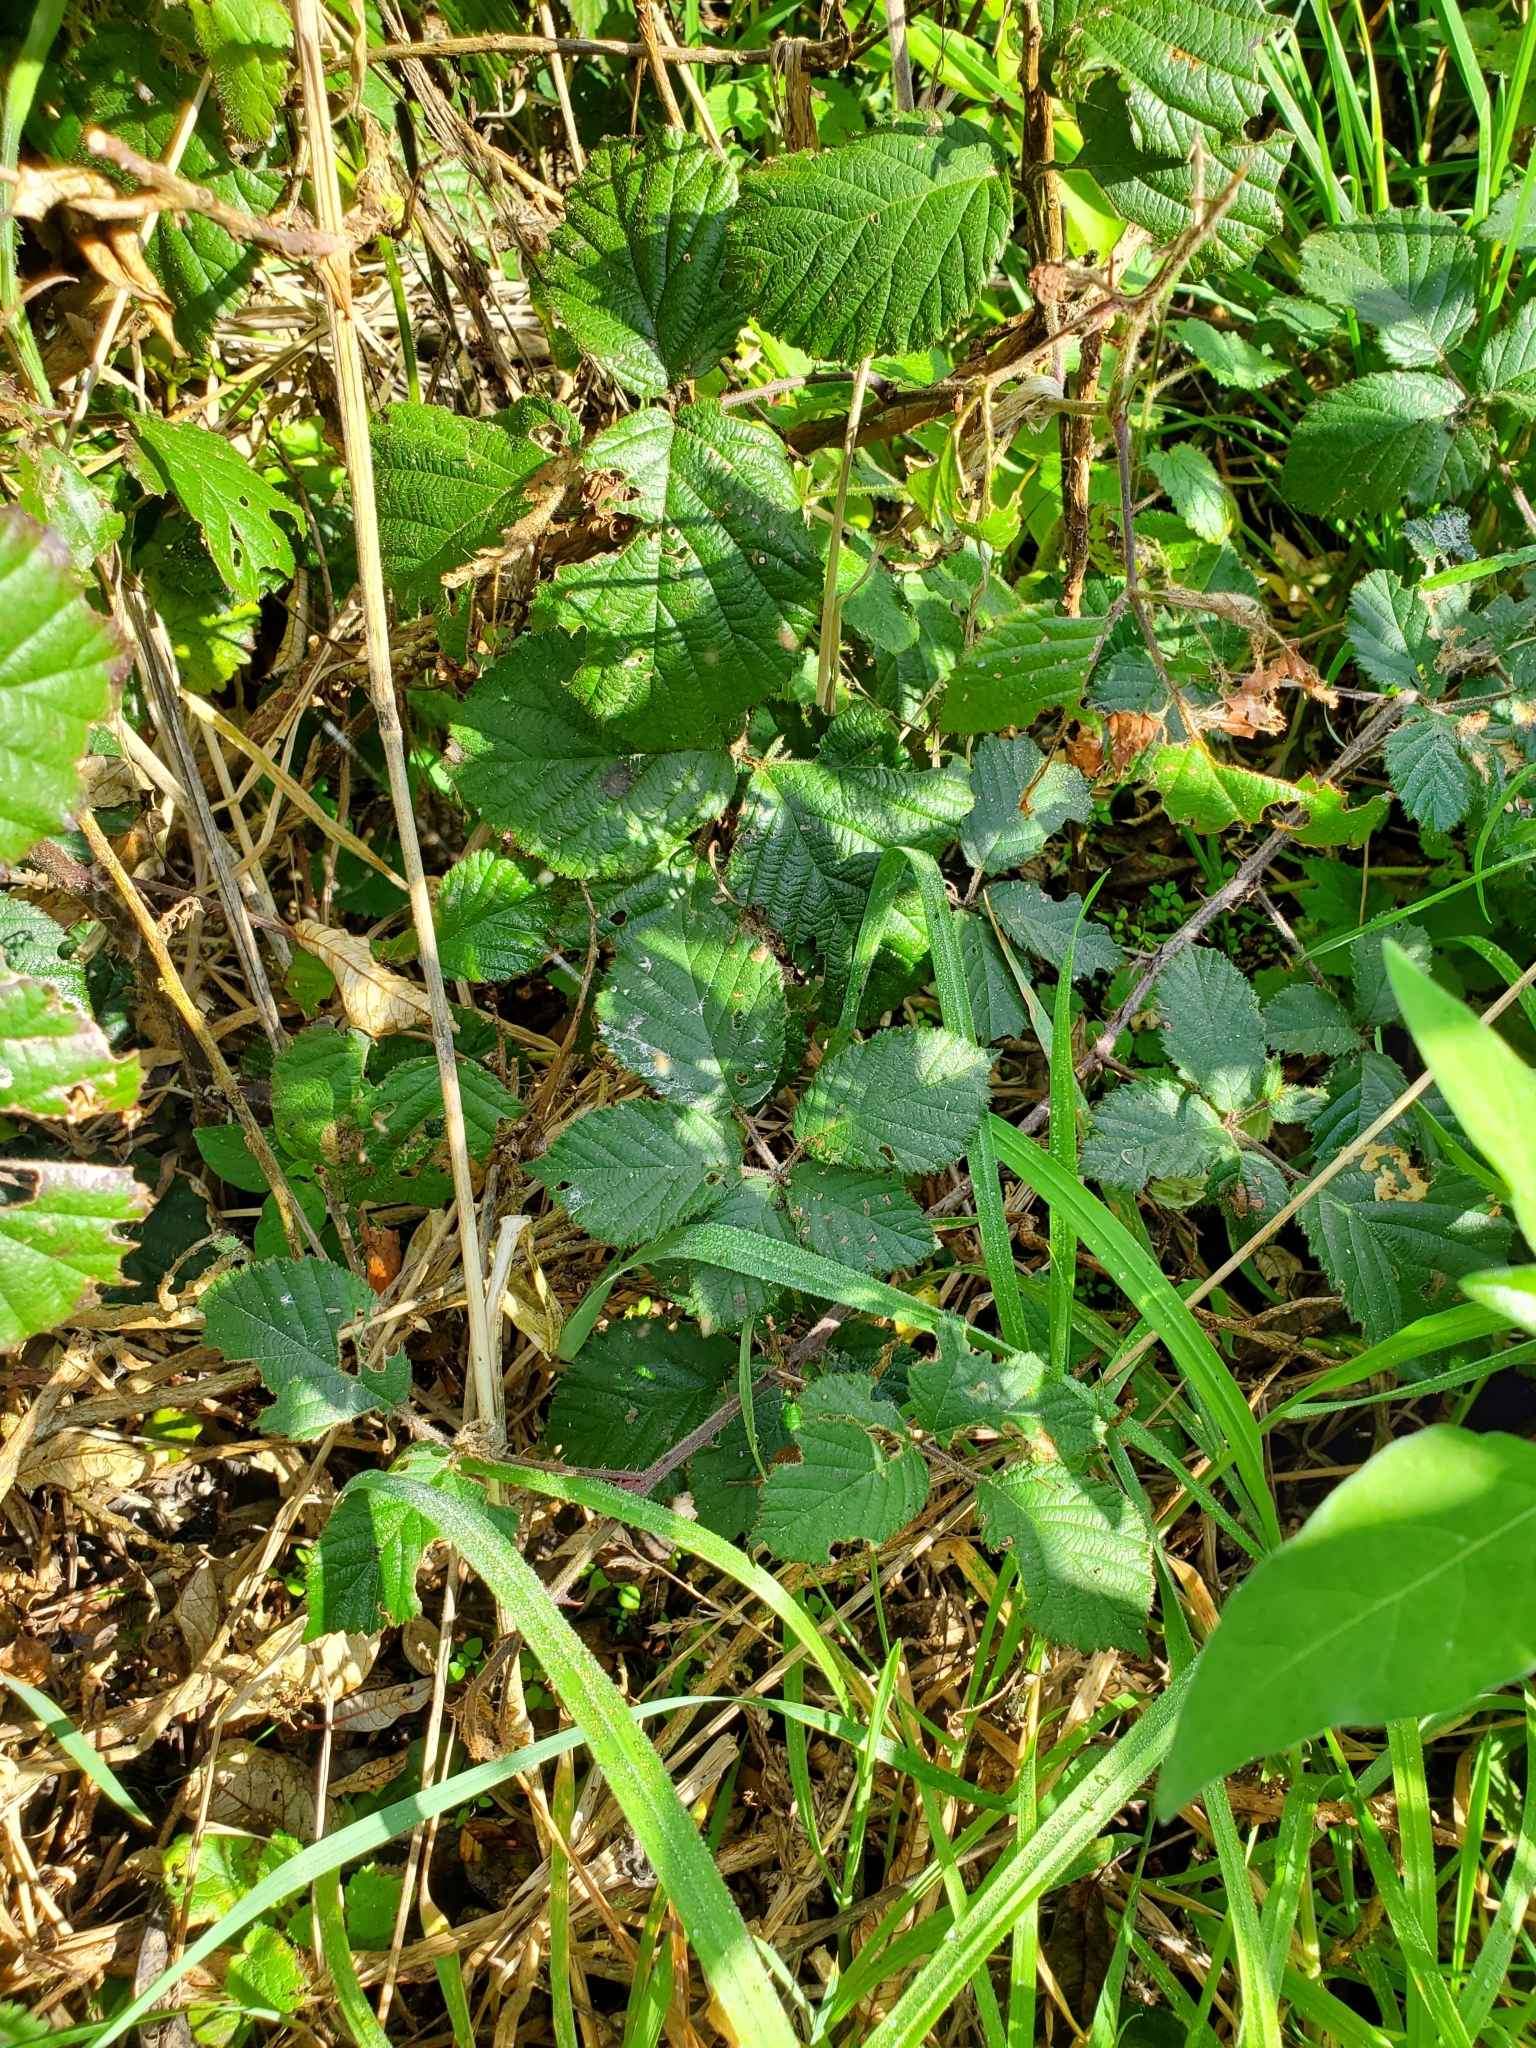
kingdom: Plantae
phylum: Tracheophyta
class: Magnoliopsida
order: Rosales
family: Rosaceae
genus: Rubus
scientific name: Rubus fruticosus
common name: Blackberry, bramble
